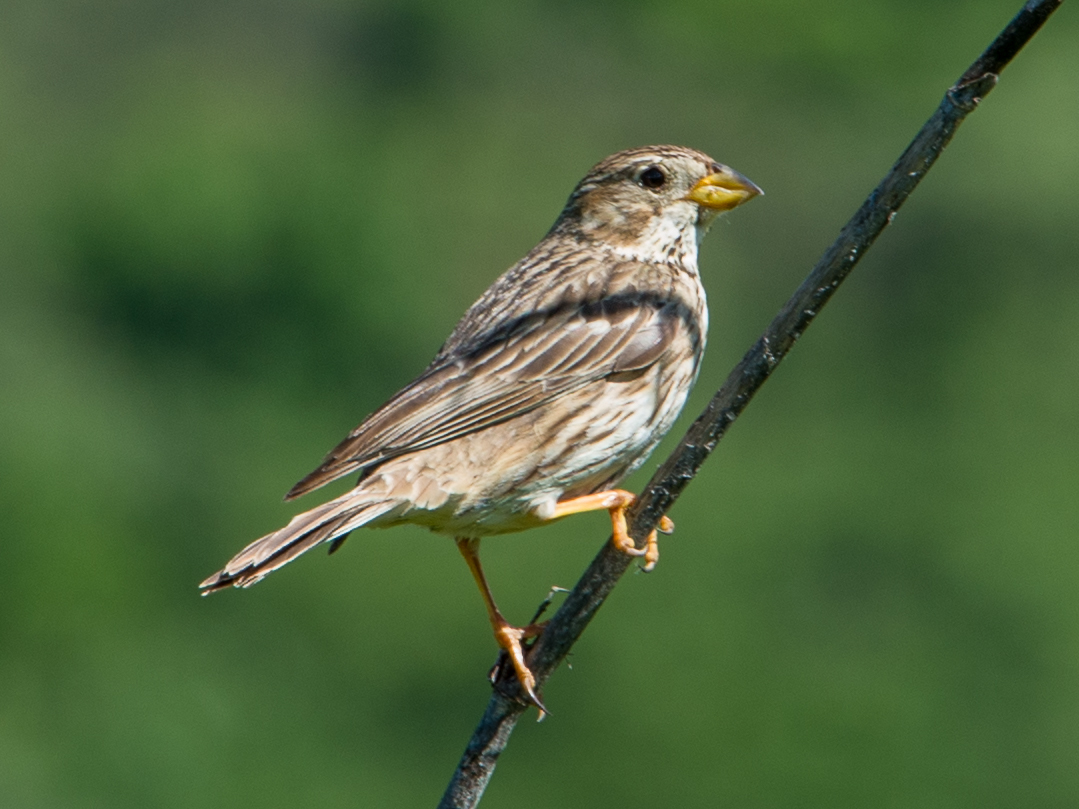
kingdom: Animalia
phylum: Chordata
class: Aves
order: Passeriformes
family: Emberizidae
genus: Emberiza
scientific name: Emberiza calandra
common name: Corn bunting
